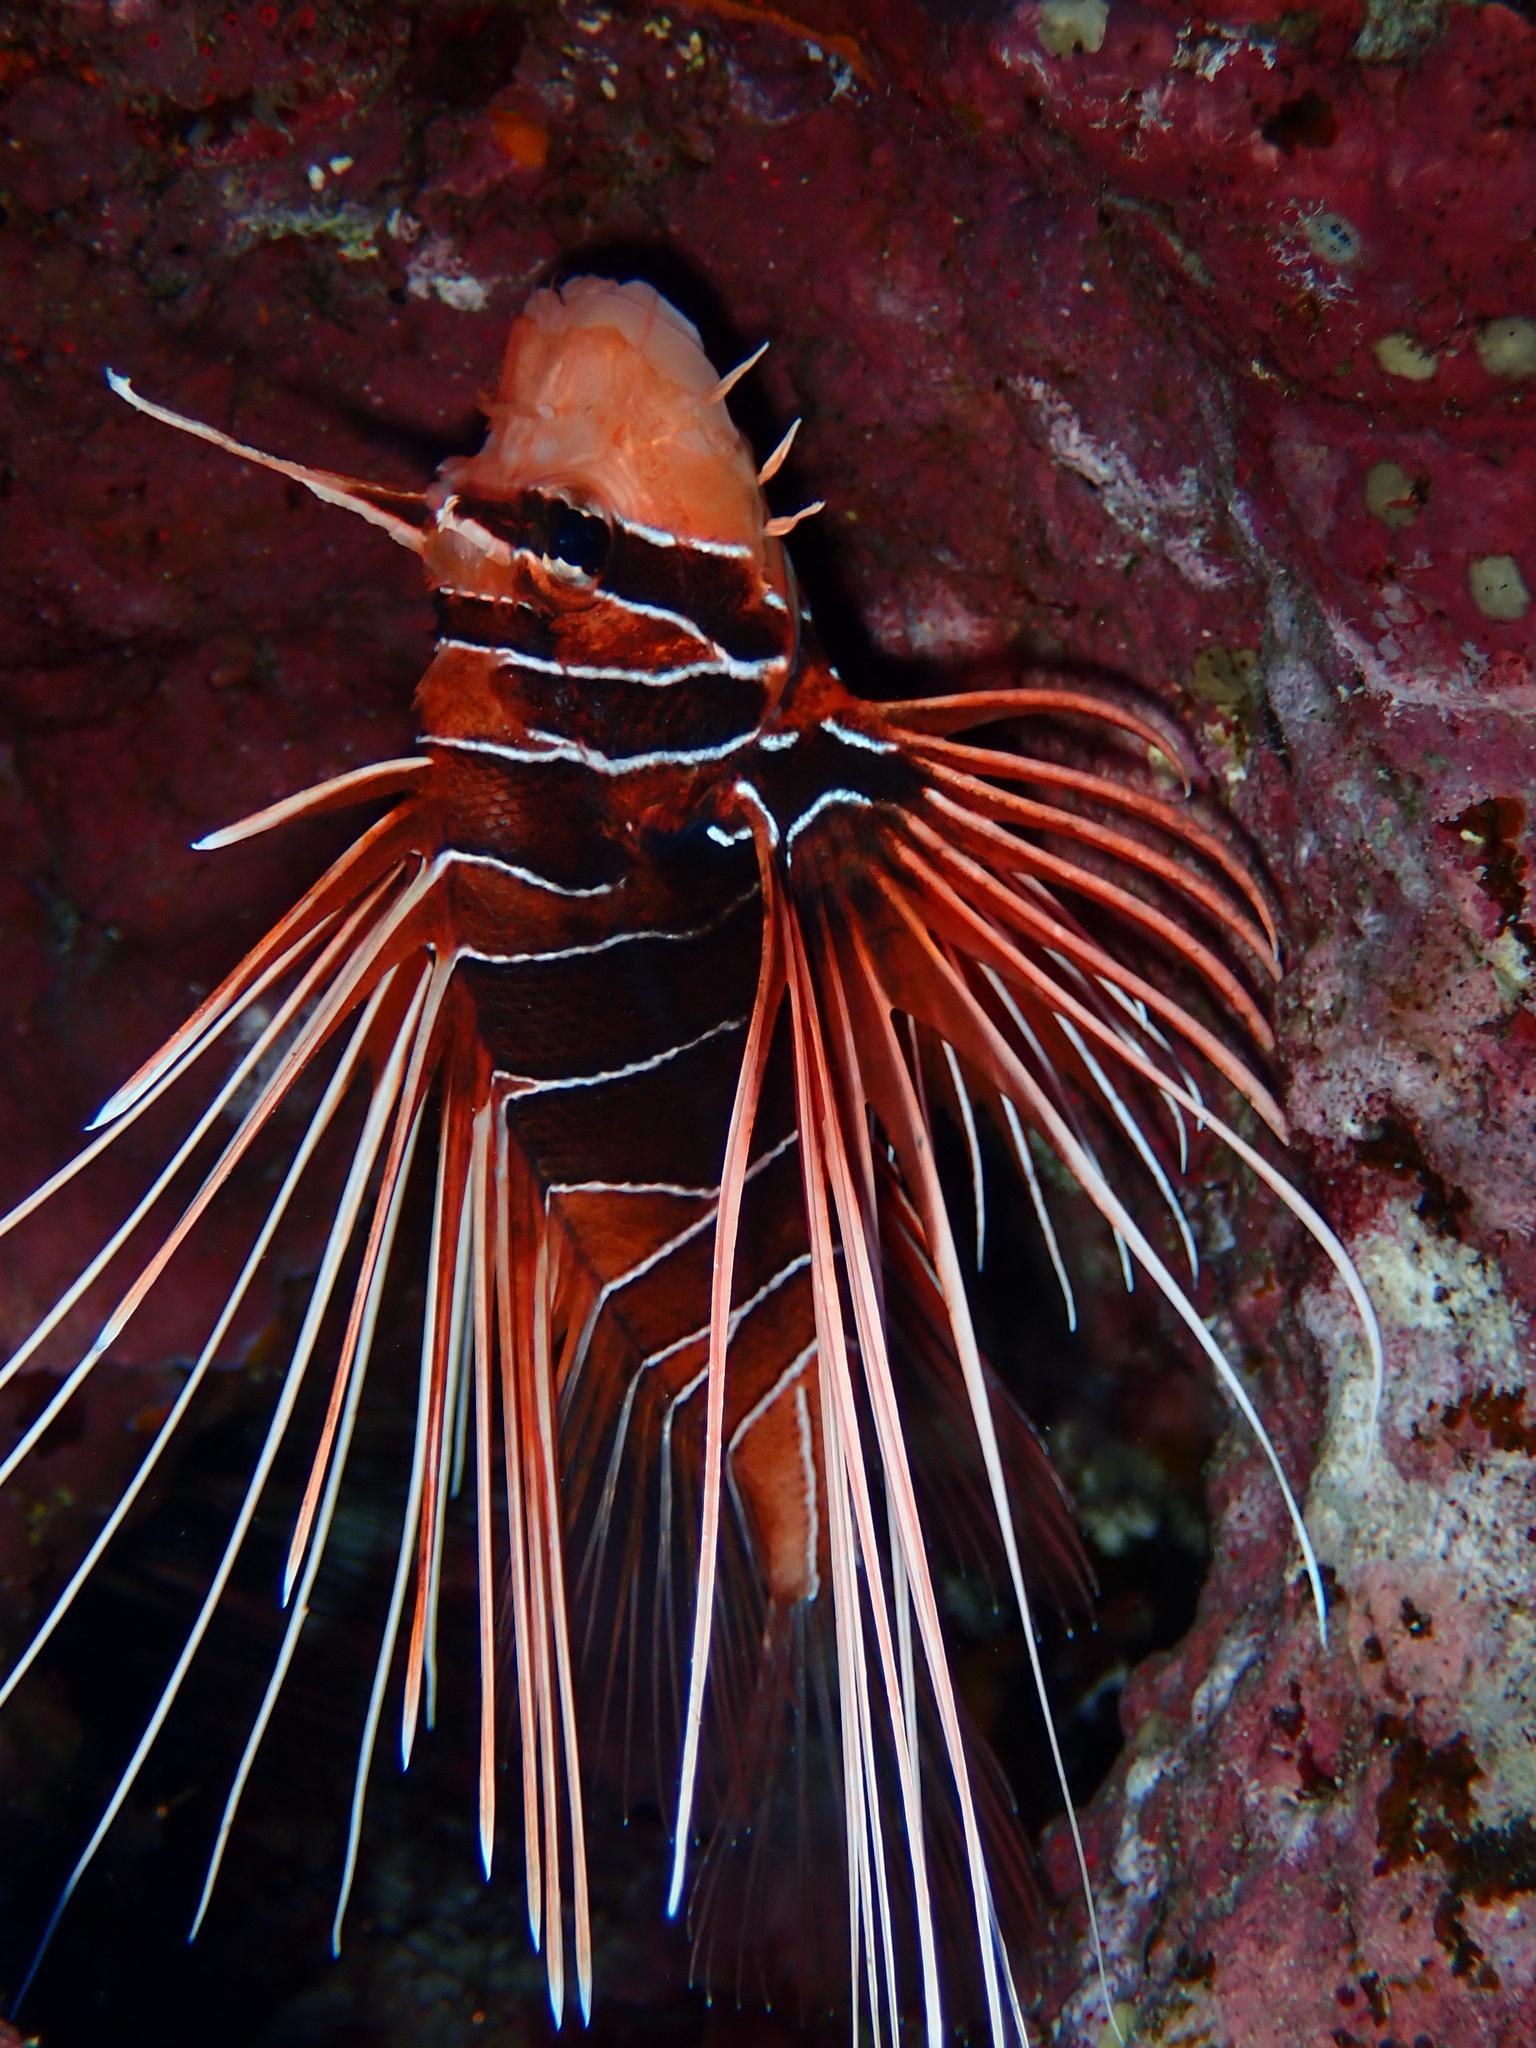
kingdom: Animalia
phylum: Chordata
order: Scorpaeniformes
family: Scorpaenidae
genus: Pterois
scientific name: Pterois cincta
